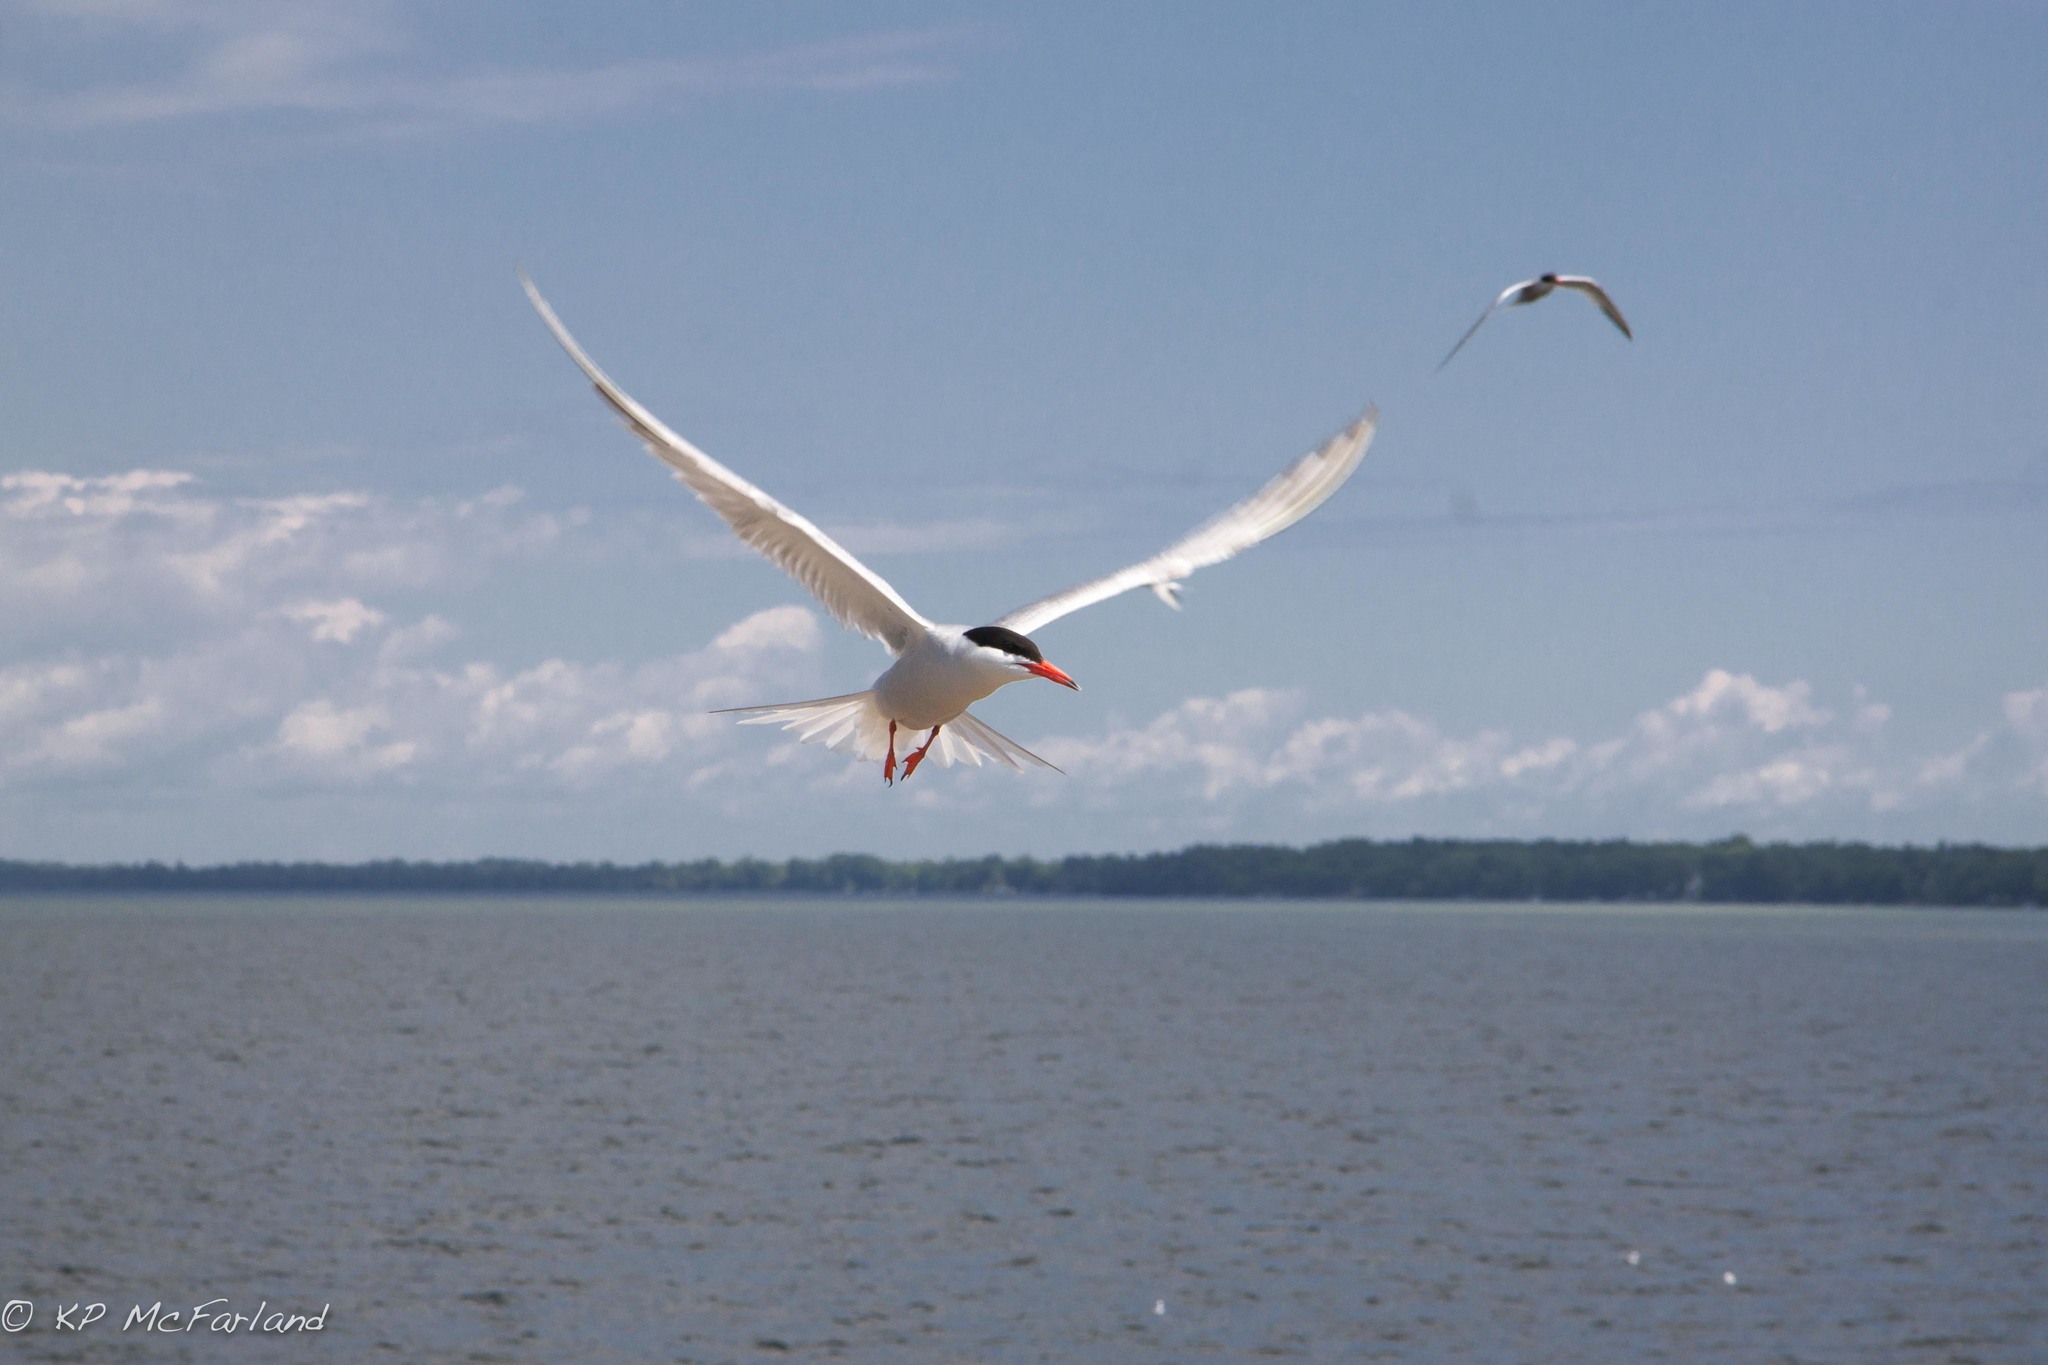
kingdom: Animalia
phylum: Chordata
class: Aves
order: Charadriiformes
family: Laridae
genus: Sterna
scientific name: Sterna hirundo
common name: Common tern
